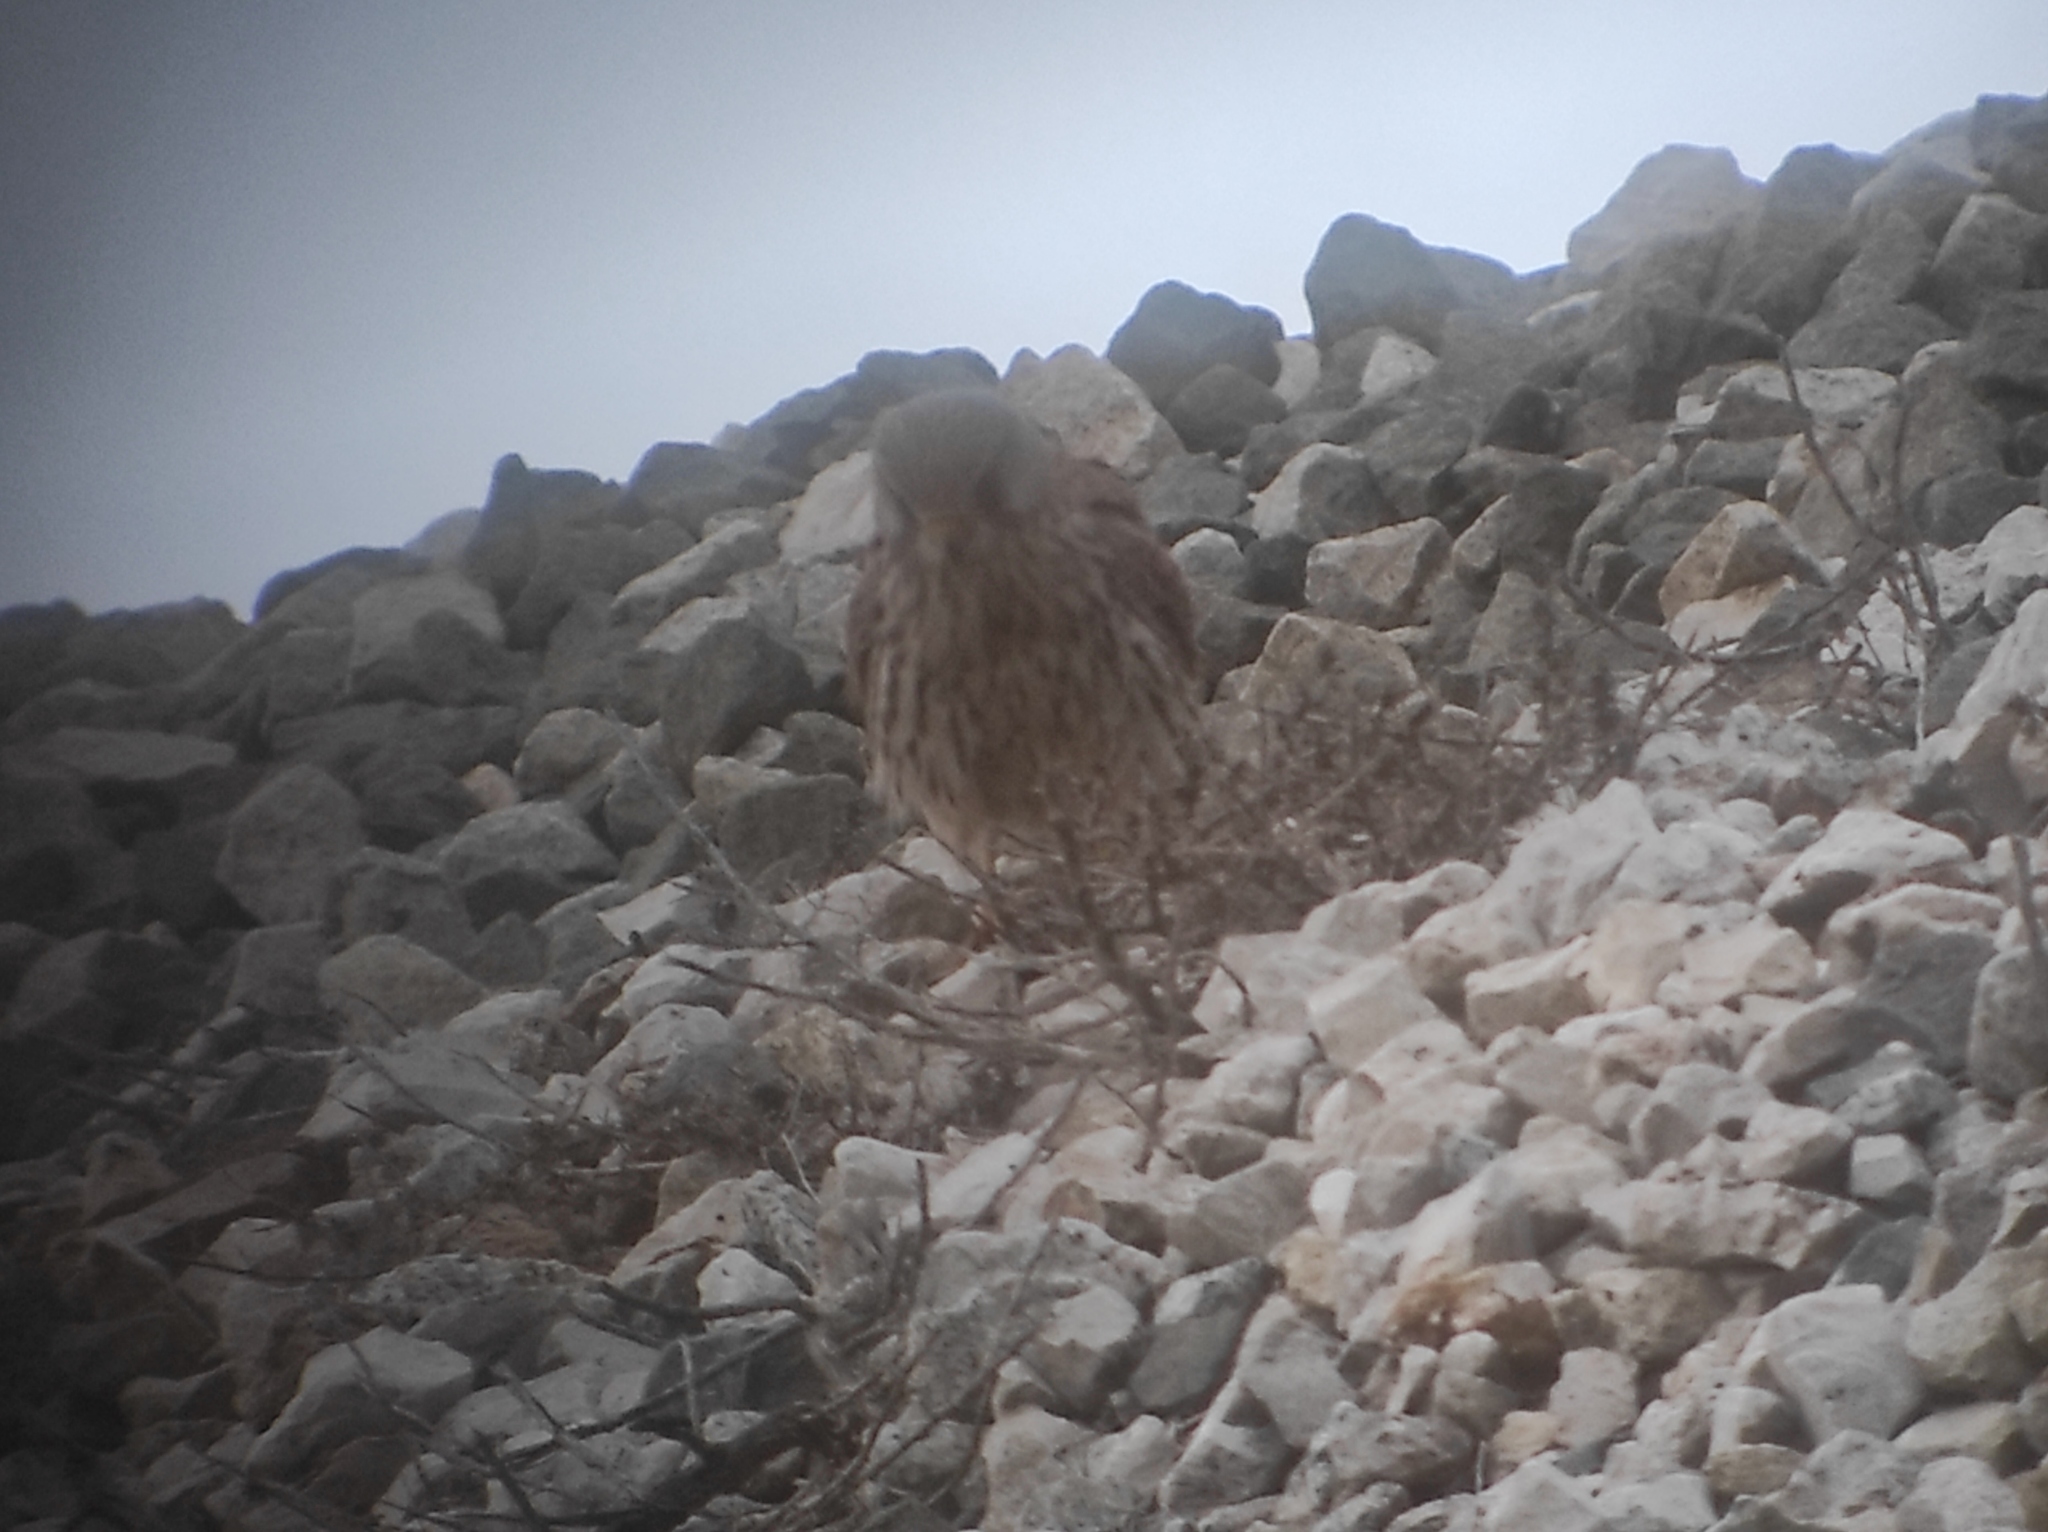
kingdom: Animalia
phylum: Chordata
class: Aves
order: Falconiformes
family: Falconidae
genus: Falco
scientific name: Falco tinnunculus
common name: Common kestrel
